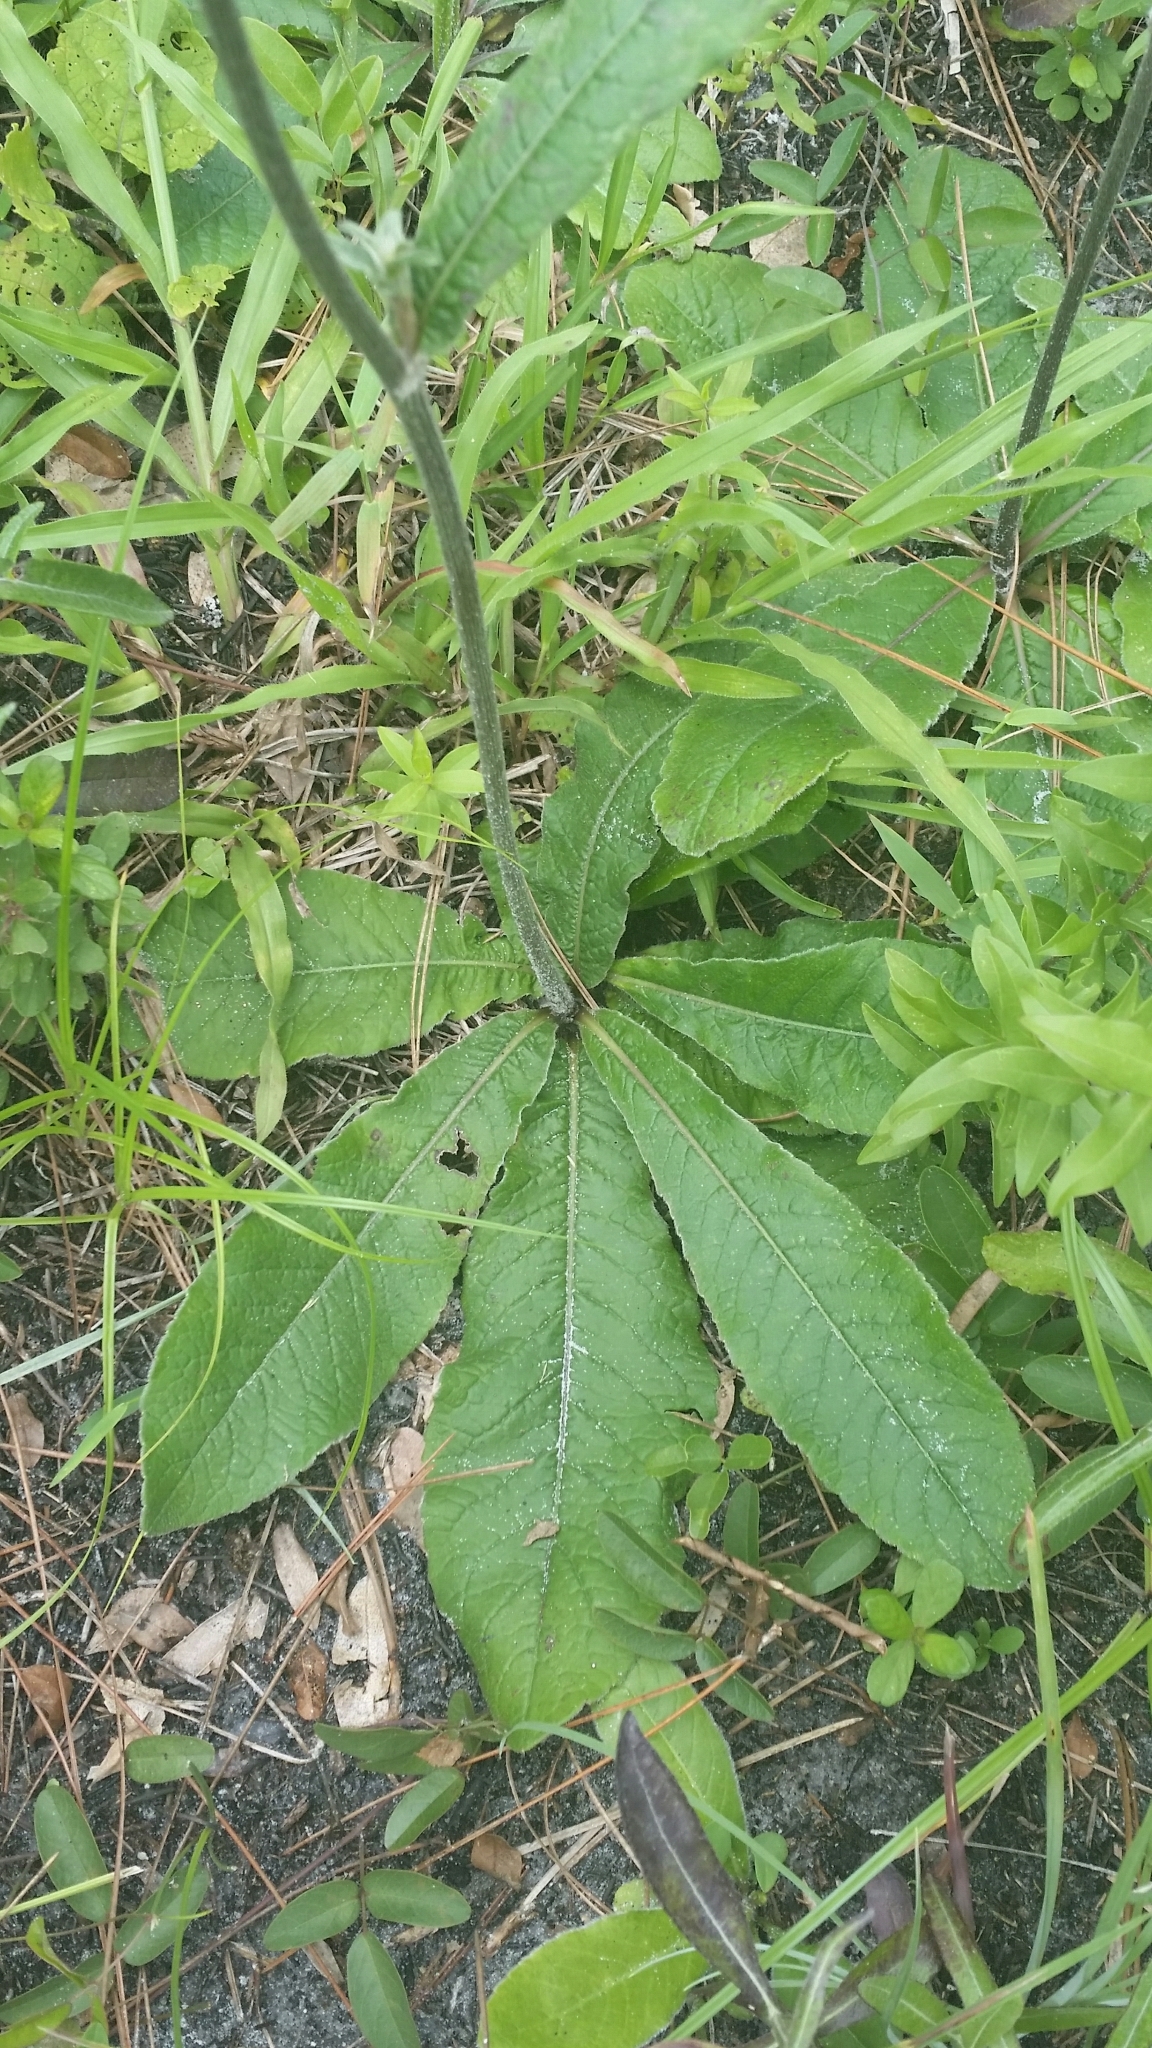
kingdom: Plantae
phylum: Tracheophyta
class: Magnoliopsida
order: Asterales
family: Asteraceae
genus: Elephantopus
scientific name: Elephantopus elatus
